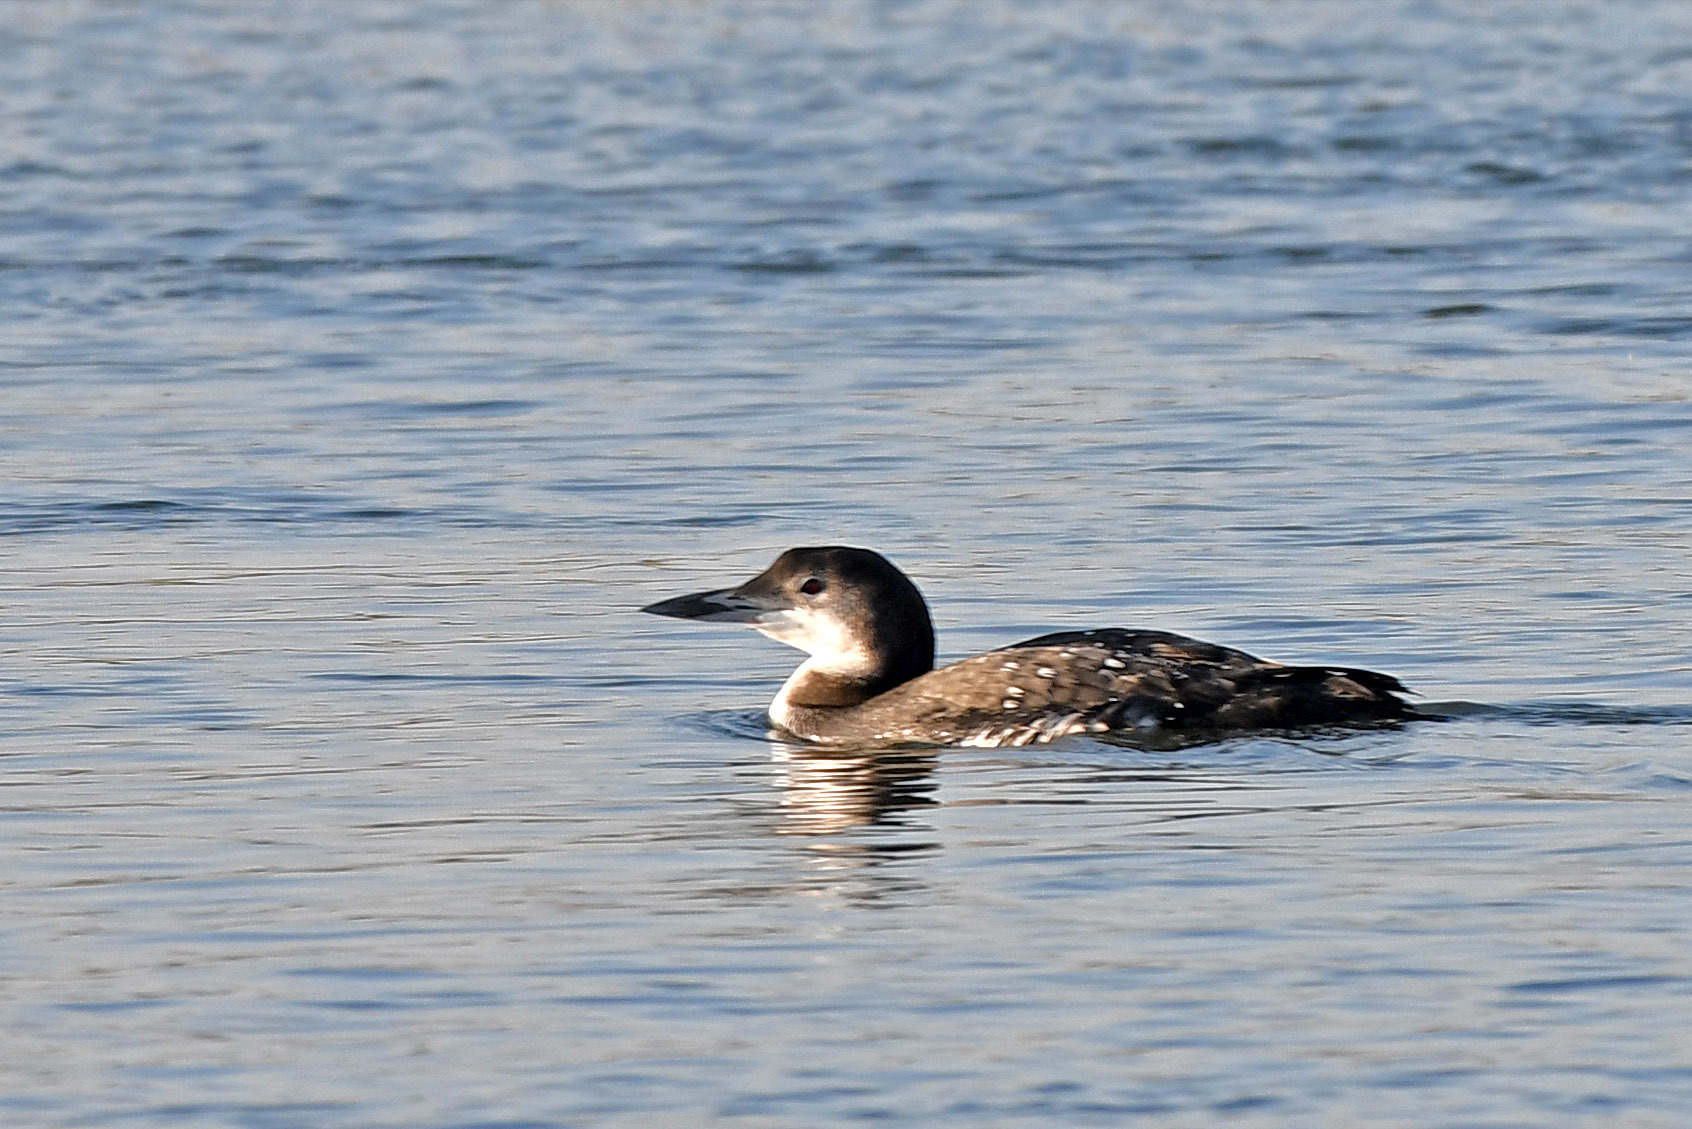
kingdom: Animalia
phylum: Chordata
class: Aves
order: Gaviiformes
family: Gaviidae
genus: Gavia
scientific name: Gavia immer
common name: Common loon
